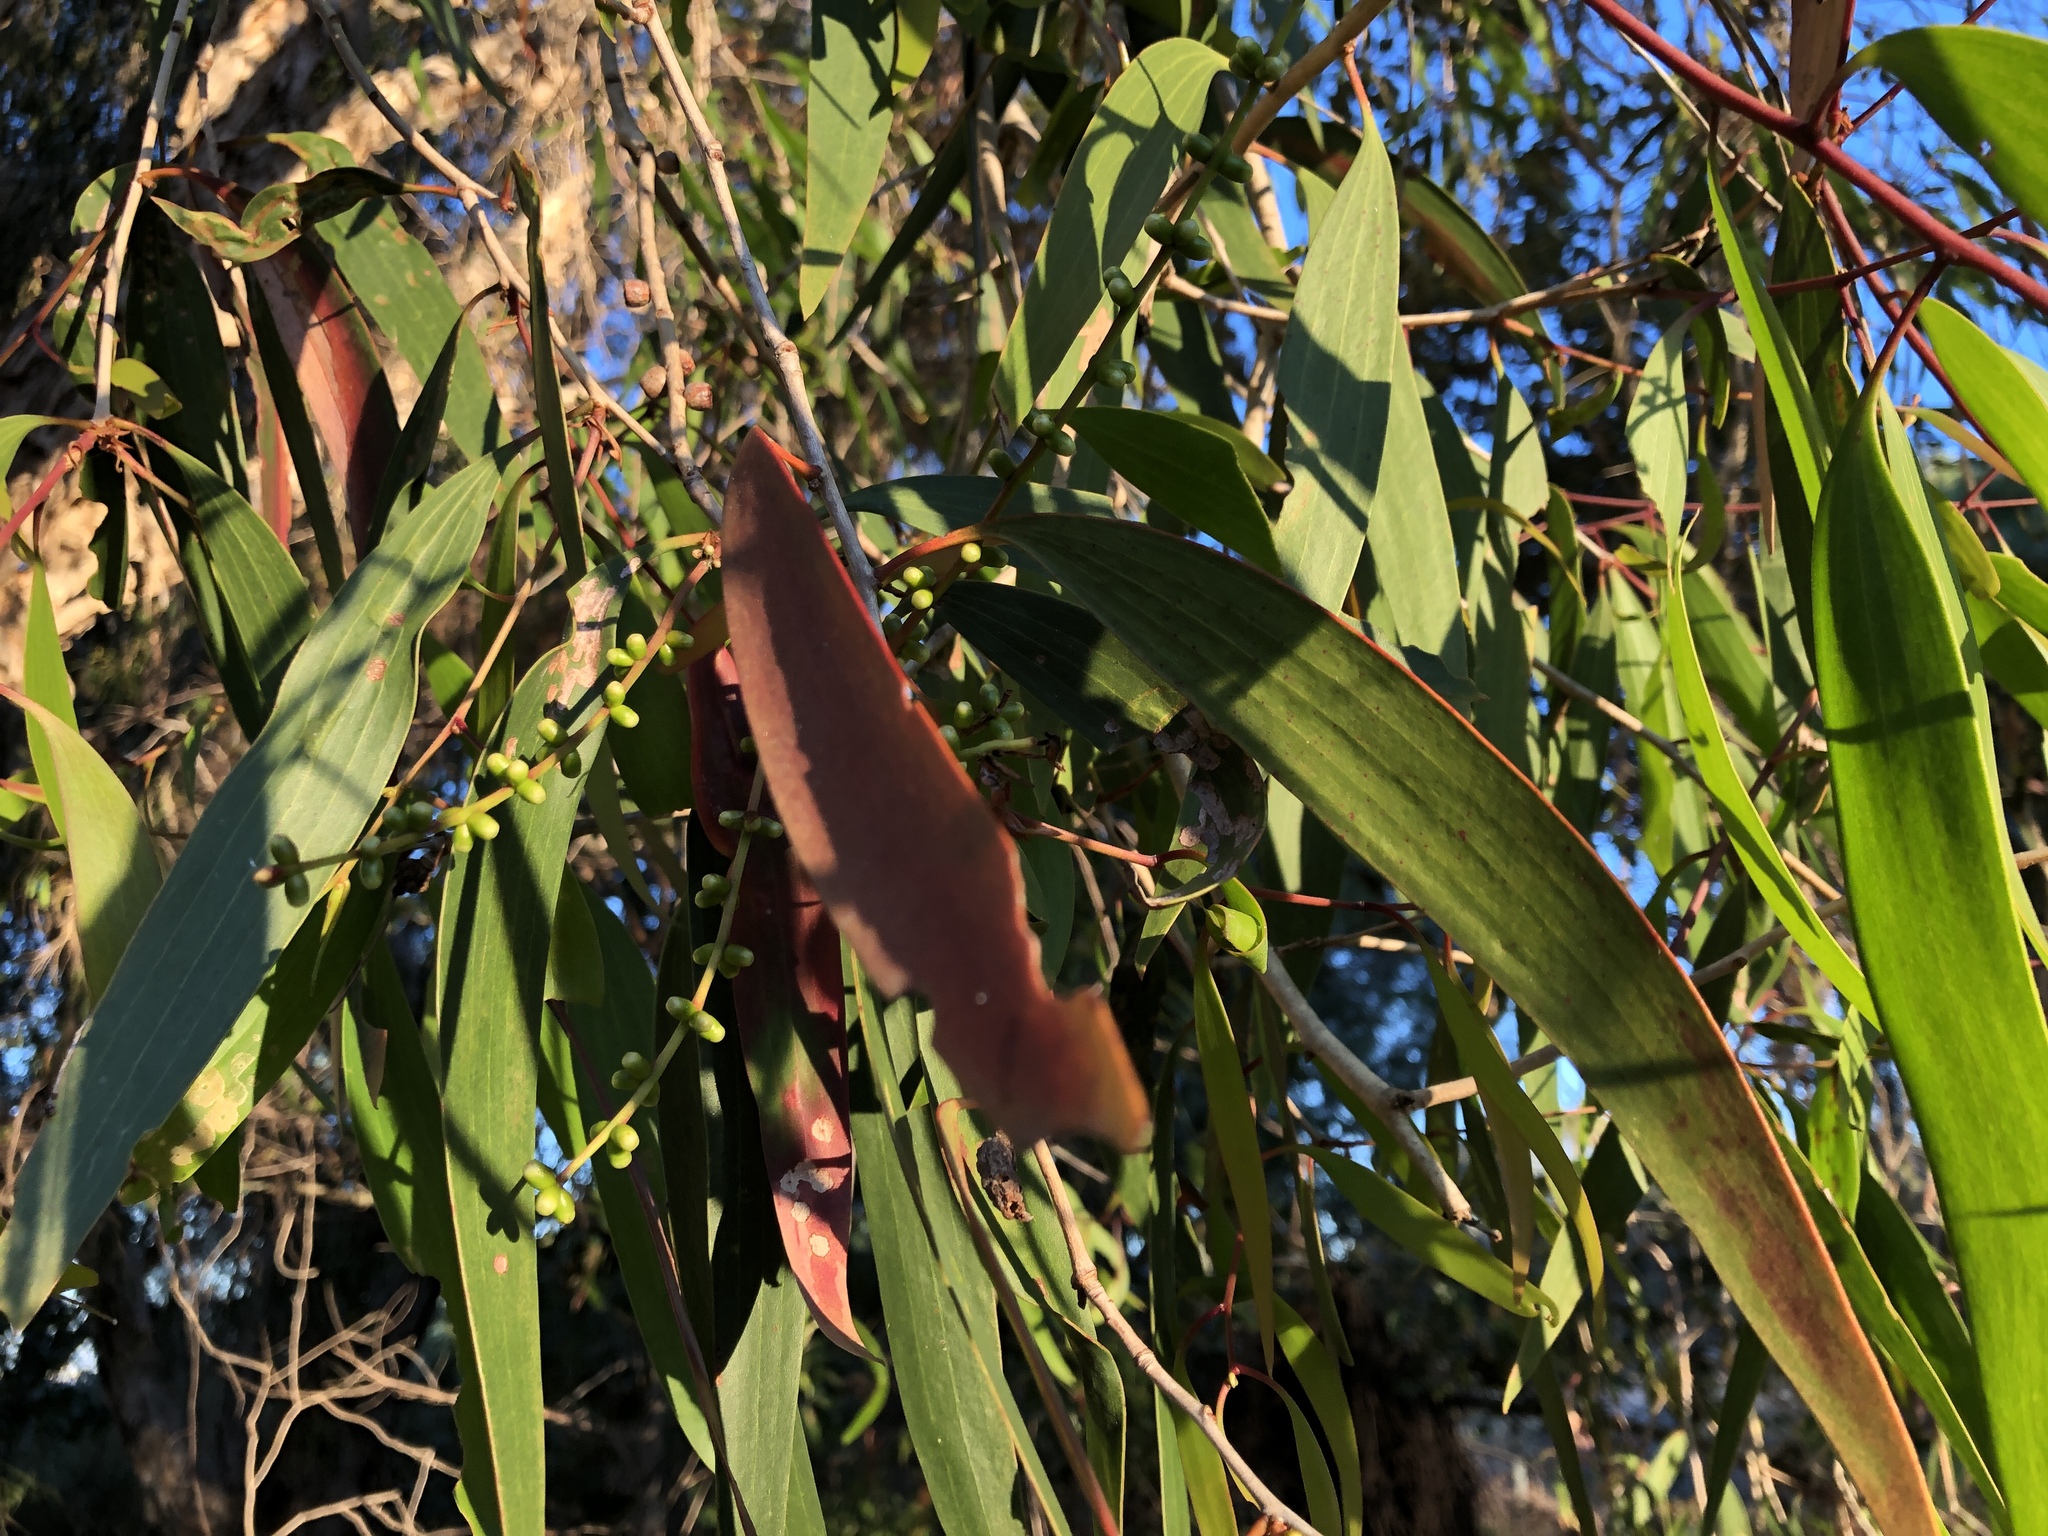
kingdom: Plantae
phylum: Tracheophyta
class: Magnoliopsida
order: Myrtales
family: Myrtaceae
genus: Melaleuca
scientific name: Melaleuca leucadendra
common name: Weeping paperbark
